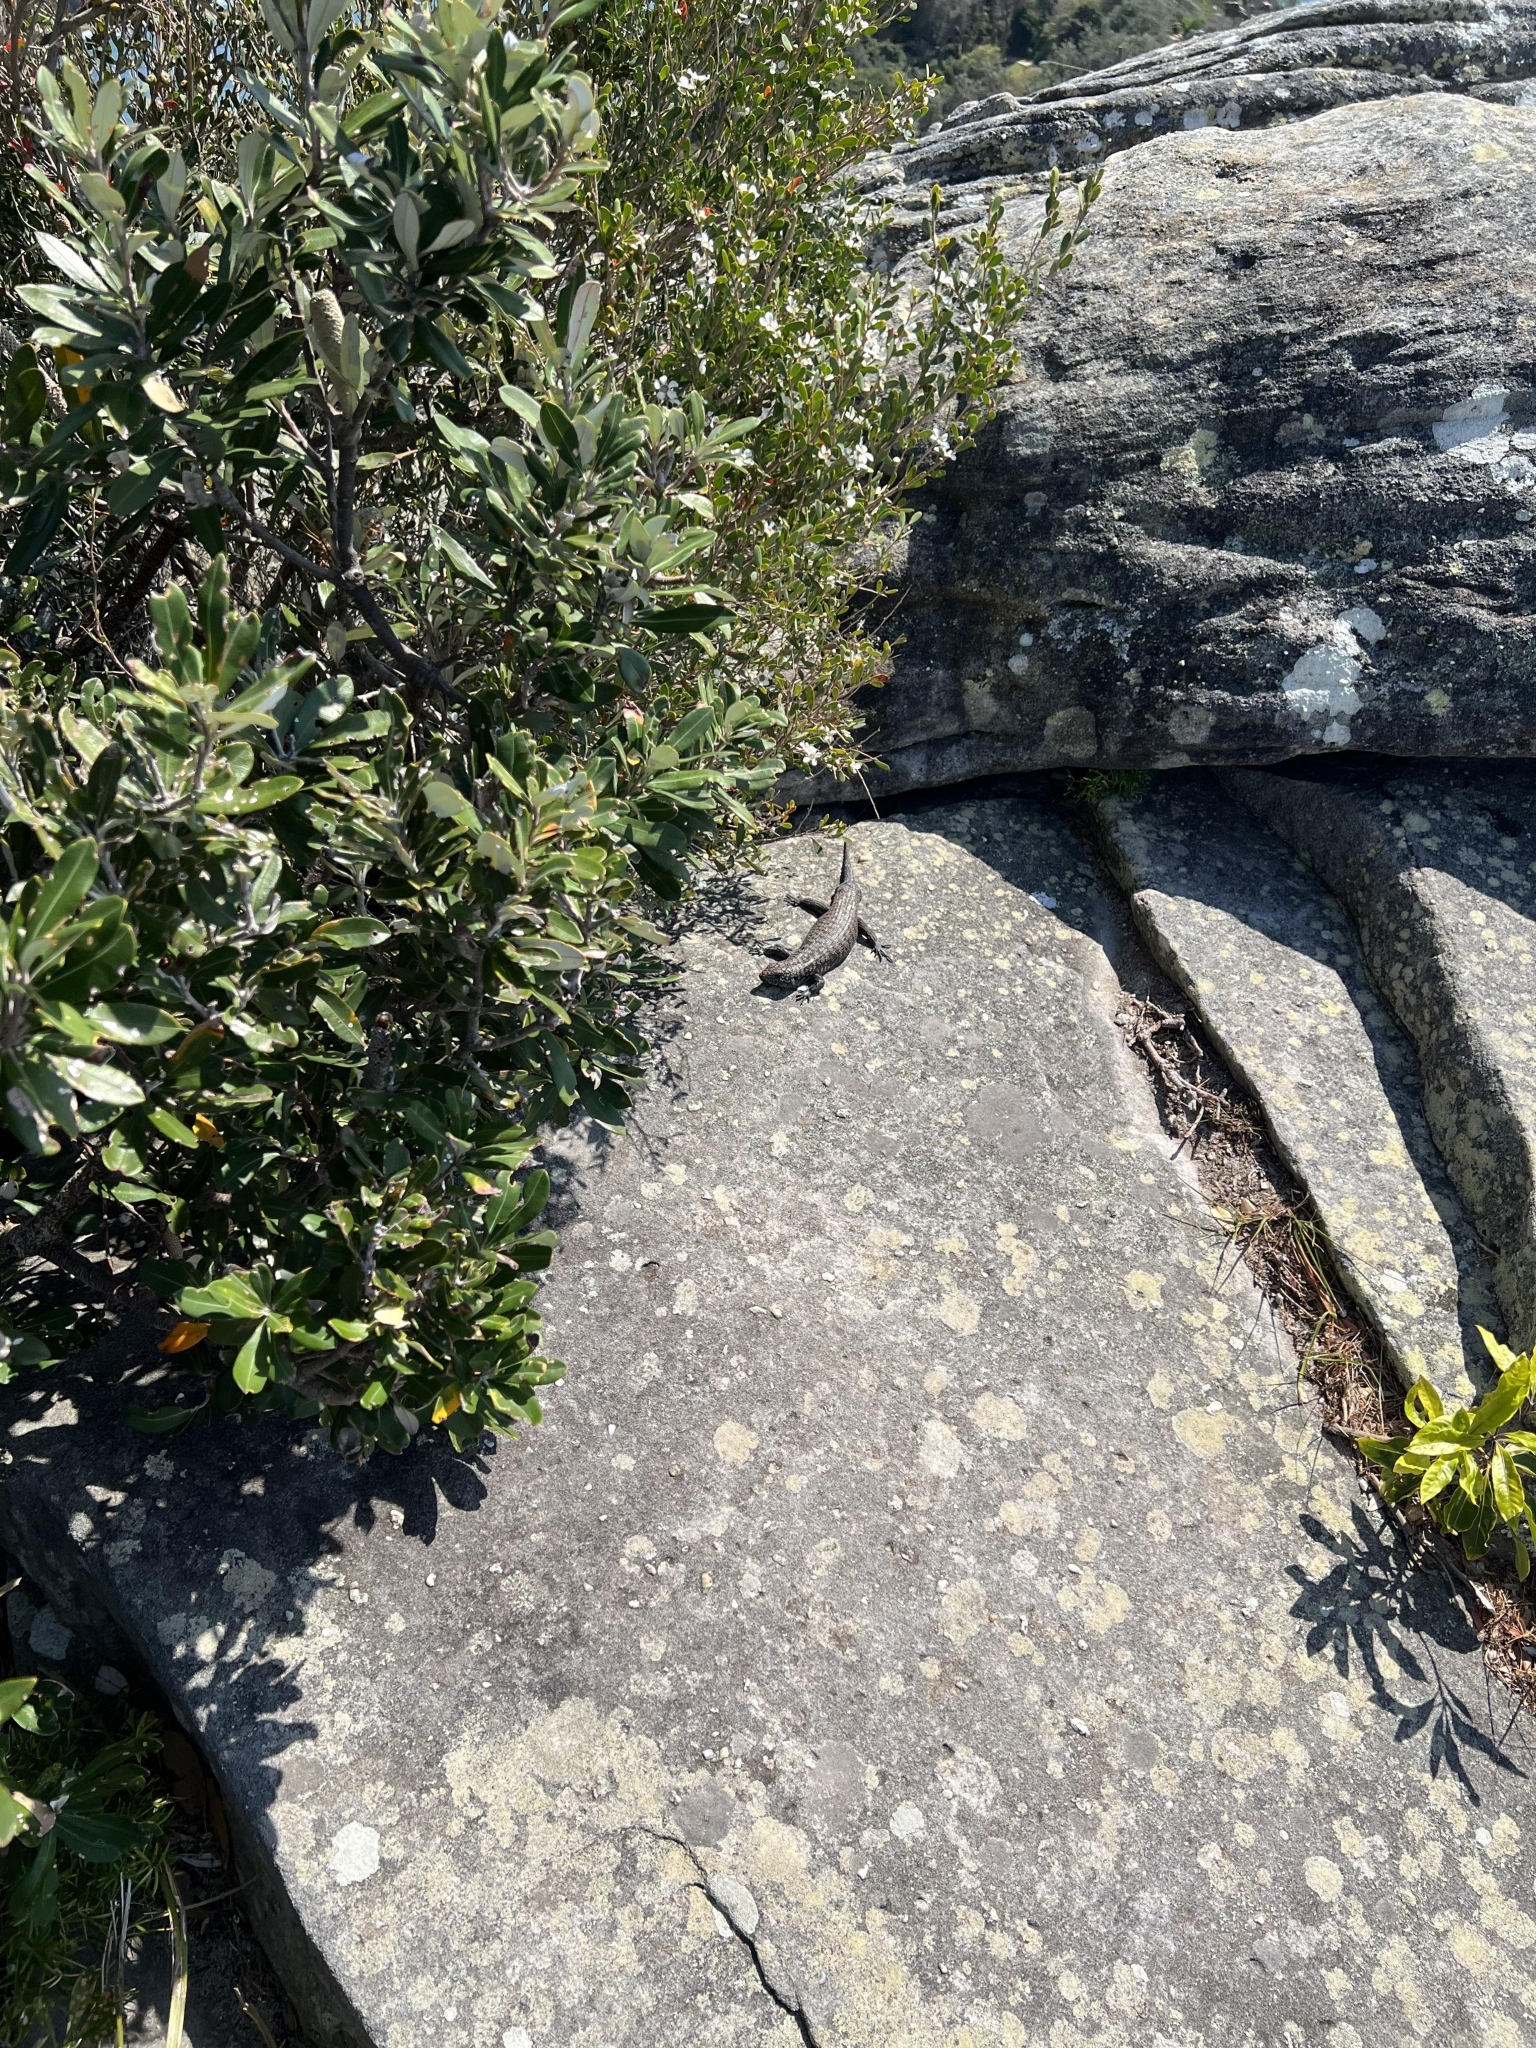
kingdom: Animalia
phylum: Chordata
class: Squamata
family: Scincidae
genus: Egernia
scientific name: Egernia cunninghami
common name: Cunningham's skink
